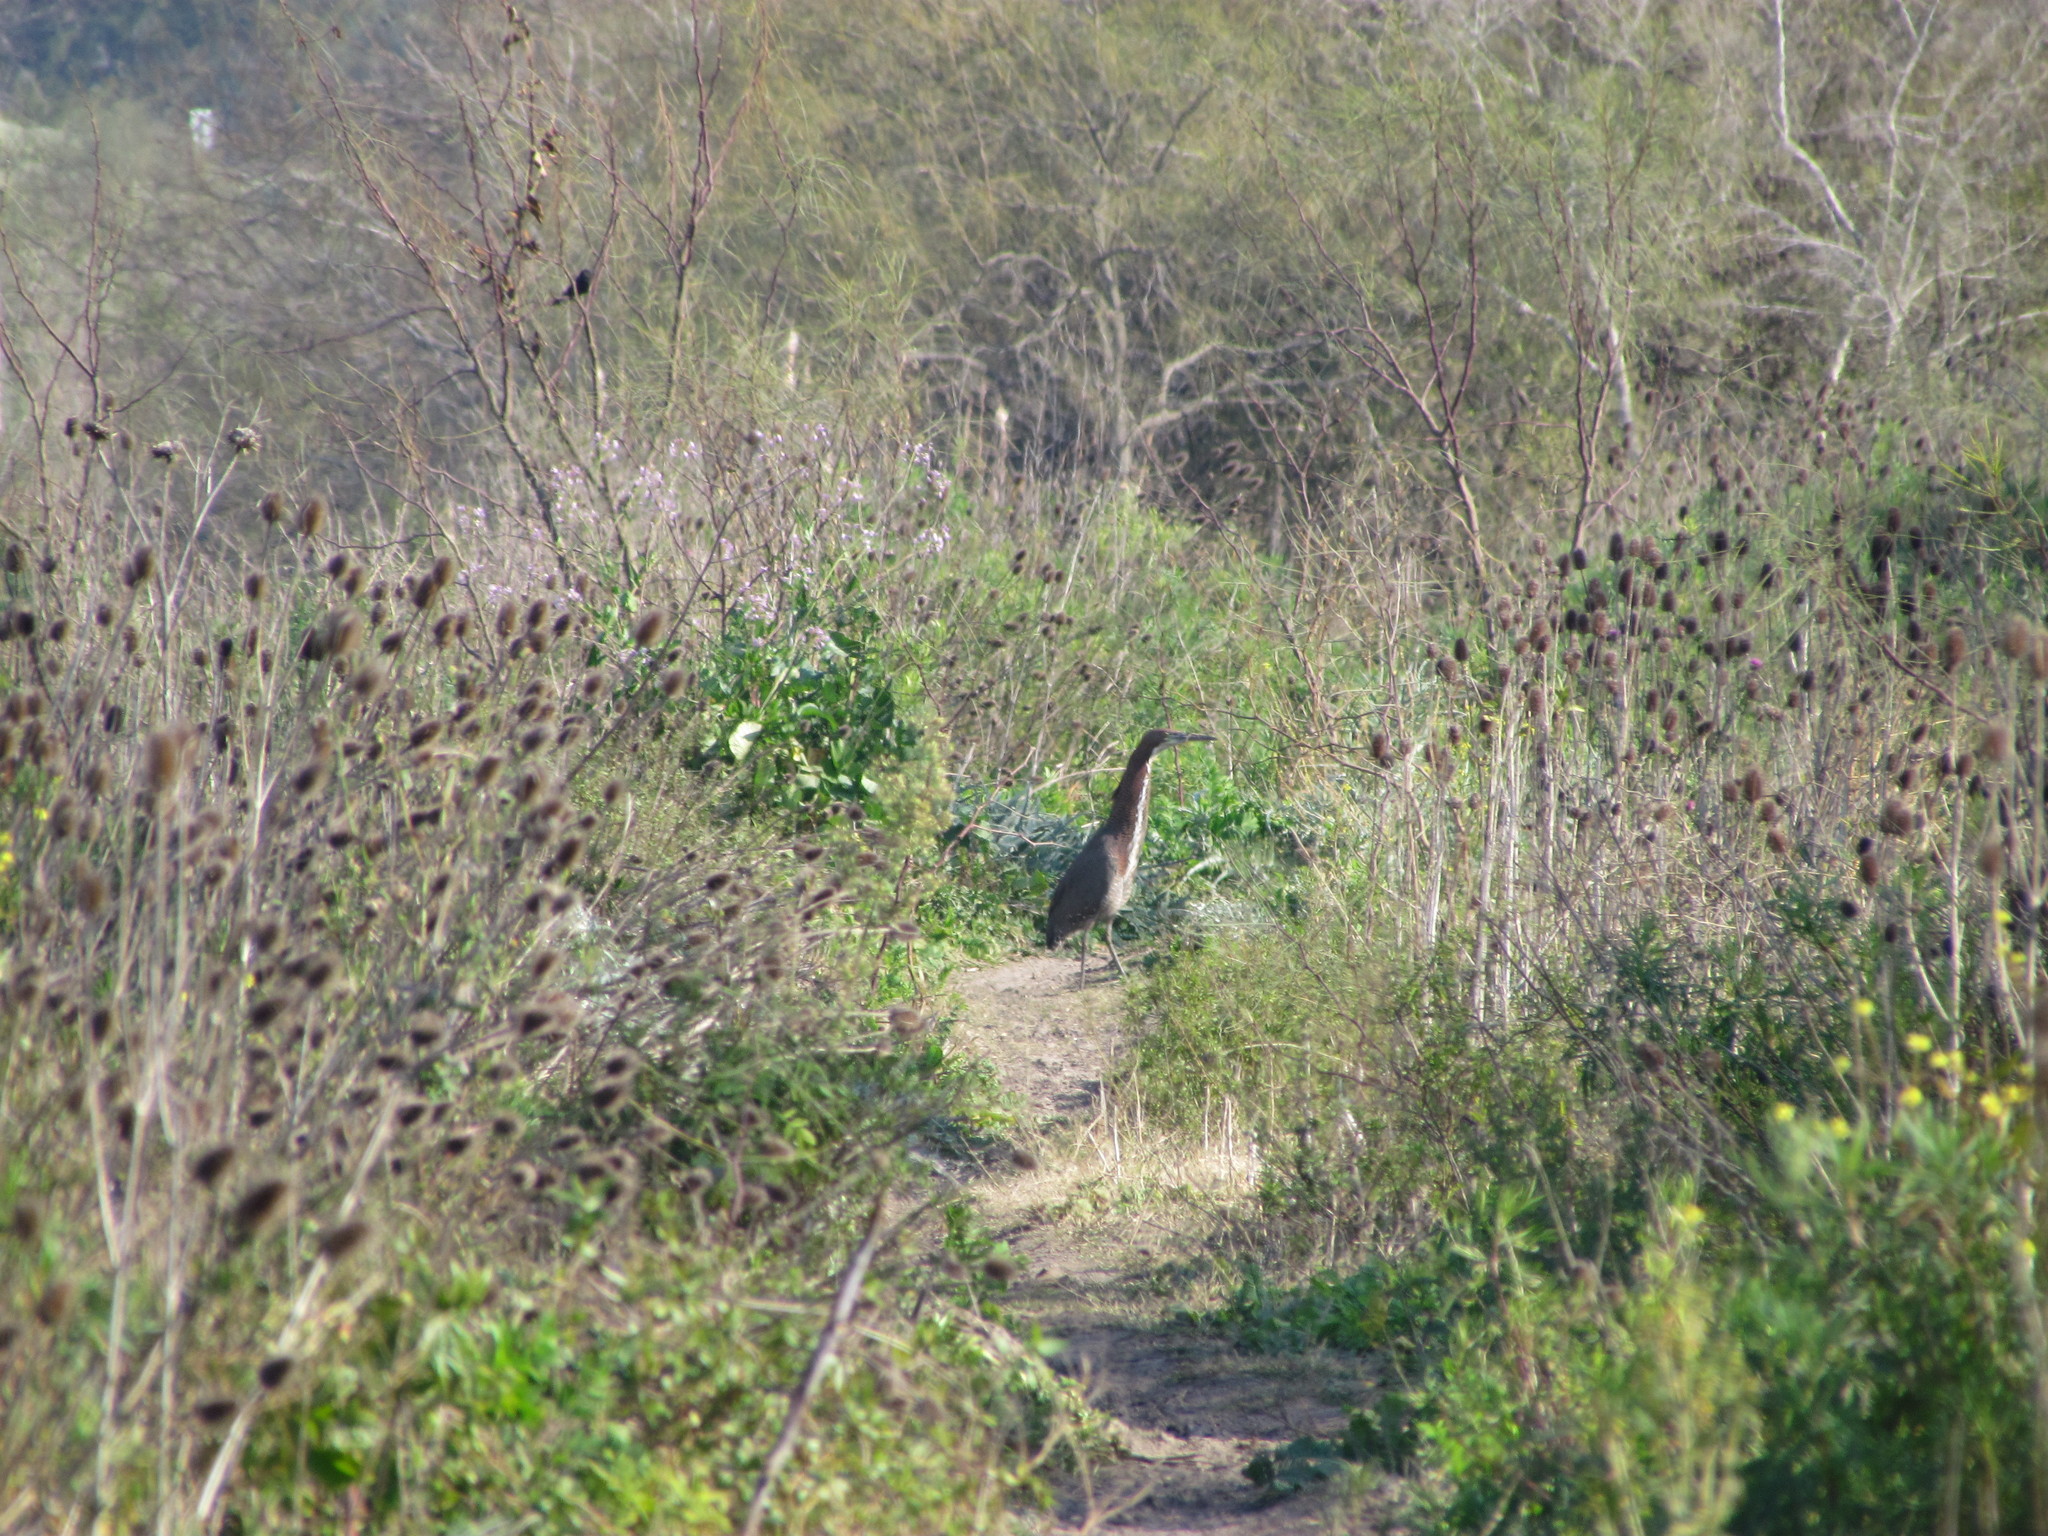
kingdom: Animalia
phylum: Chordata
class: Aves
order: Pelecaniformes
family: Ardeidae
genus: Tigrisoma
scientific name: Tigrisoma lineatum
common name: Rufescent tiger-heron
